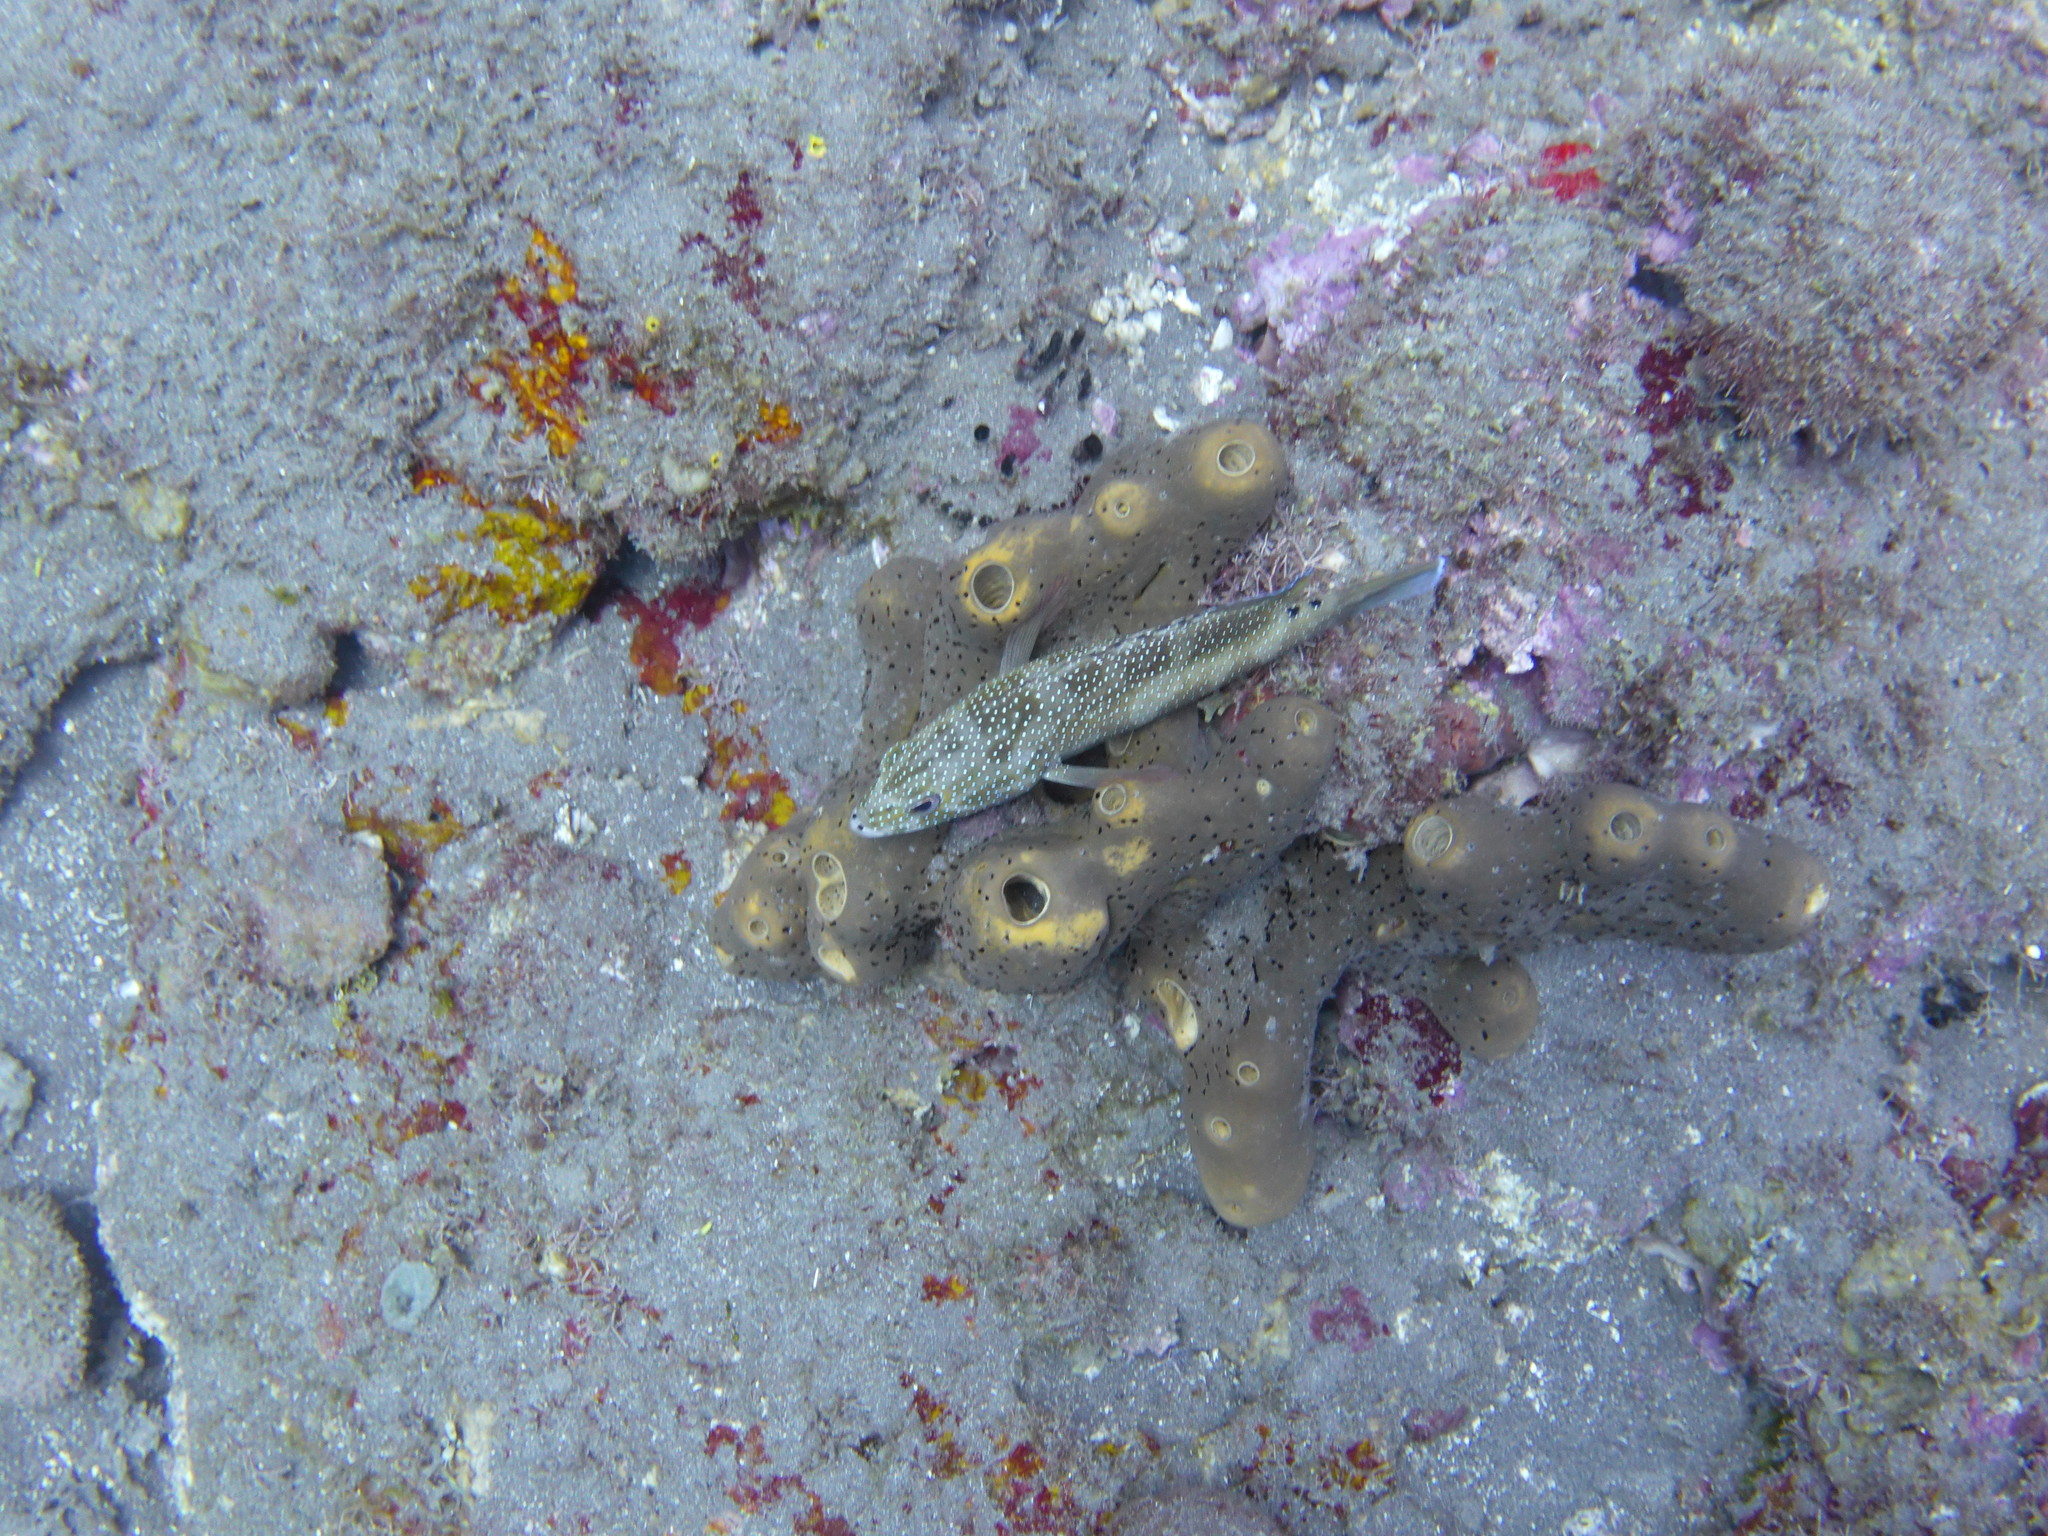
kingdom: Animalia
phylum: Chordata
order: Perciformes
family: Serranidae
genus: Cephalopholis
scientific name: Cephalopholis fulva
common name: Butterfish
